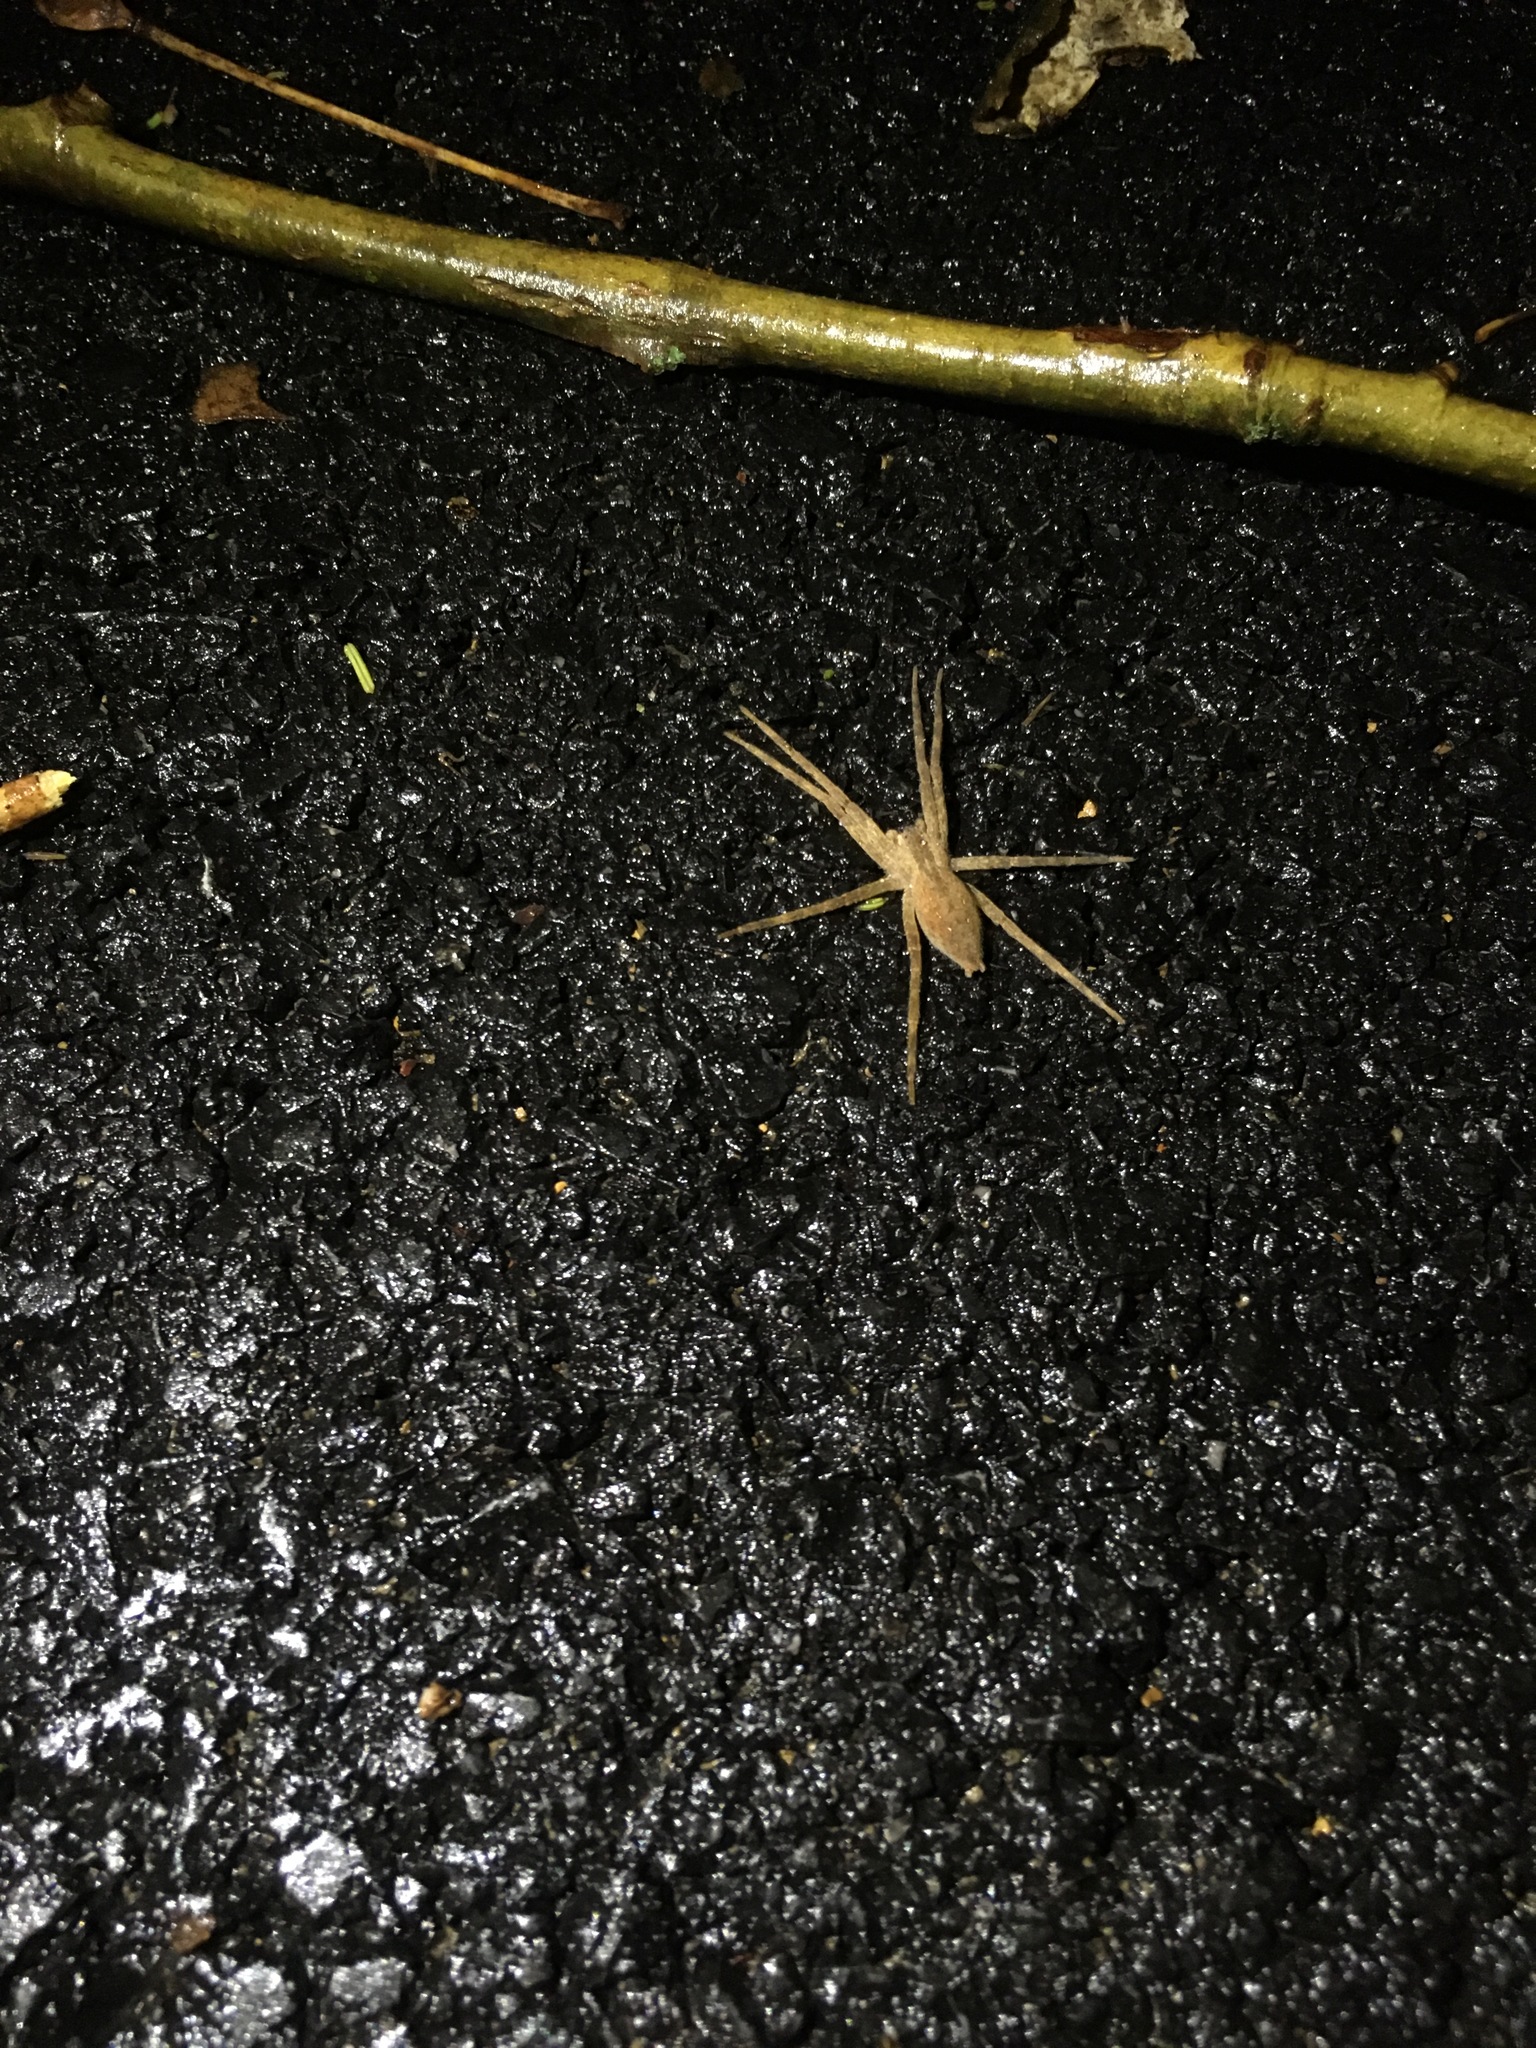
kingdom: Animalia
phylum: Arthropoda
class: Arachnida
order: Araneae
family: Pisauridae
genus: Pisaurina
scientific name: Pisaurina mira
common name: American nursery web spider
